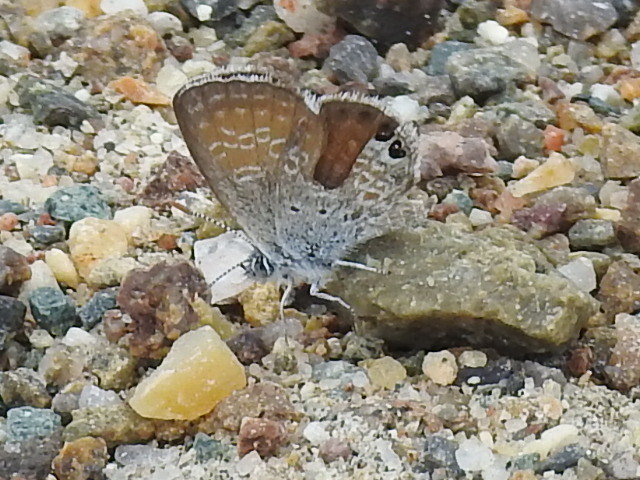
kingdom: Animalia
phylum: Arthropoda
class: Insecta
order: Lepidoptera
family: Lycaenidae
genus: Brephidium
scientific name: Brephidium exilis
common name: Pygmy blue
